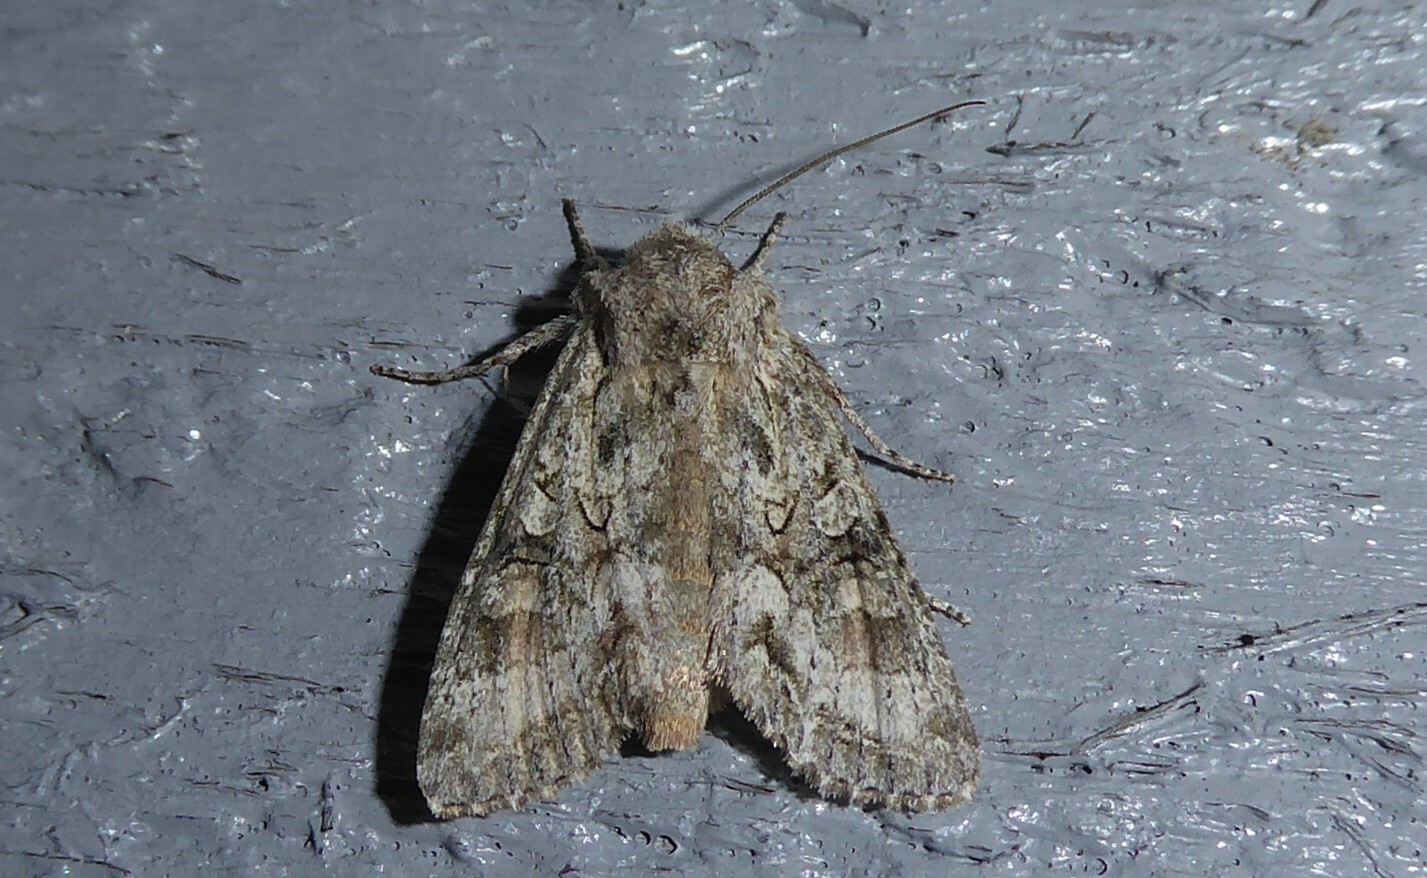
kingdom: Animalia
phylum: Arthropoda
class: Insecta
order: Lepidoptera
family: Noctuidae
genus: Ichneutica
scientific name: Ichneutica mutans
